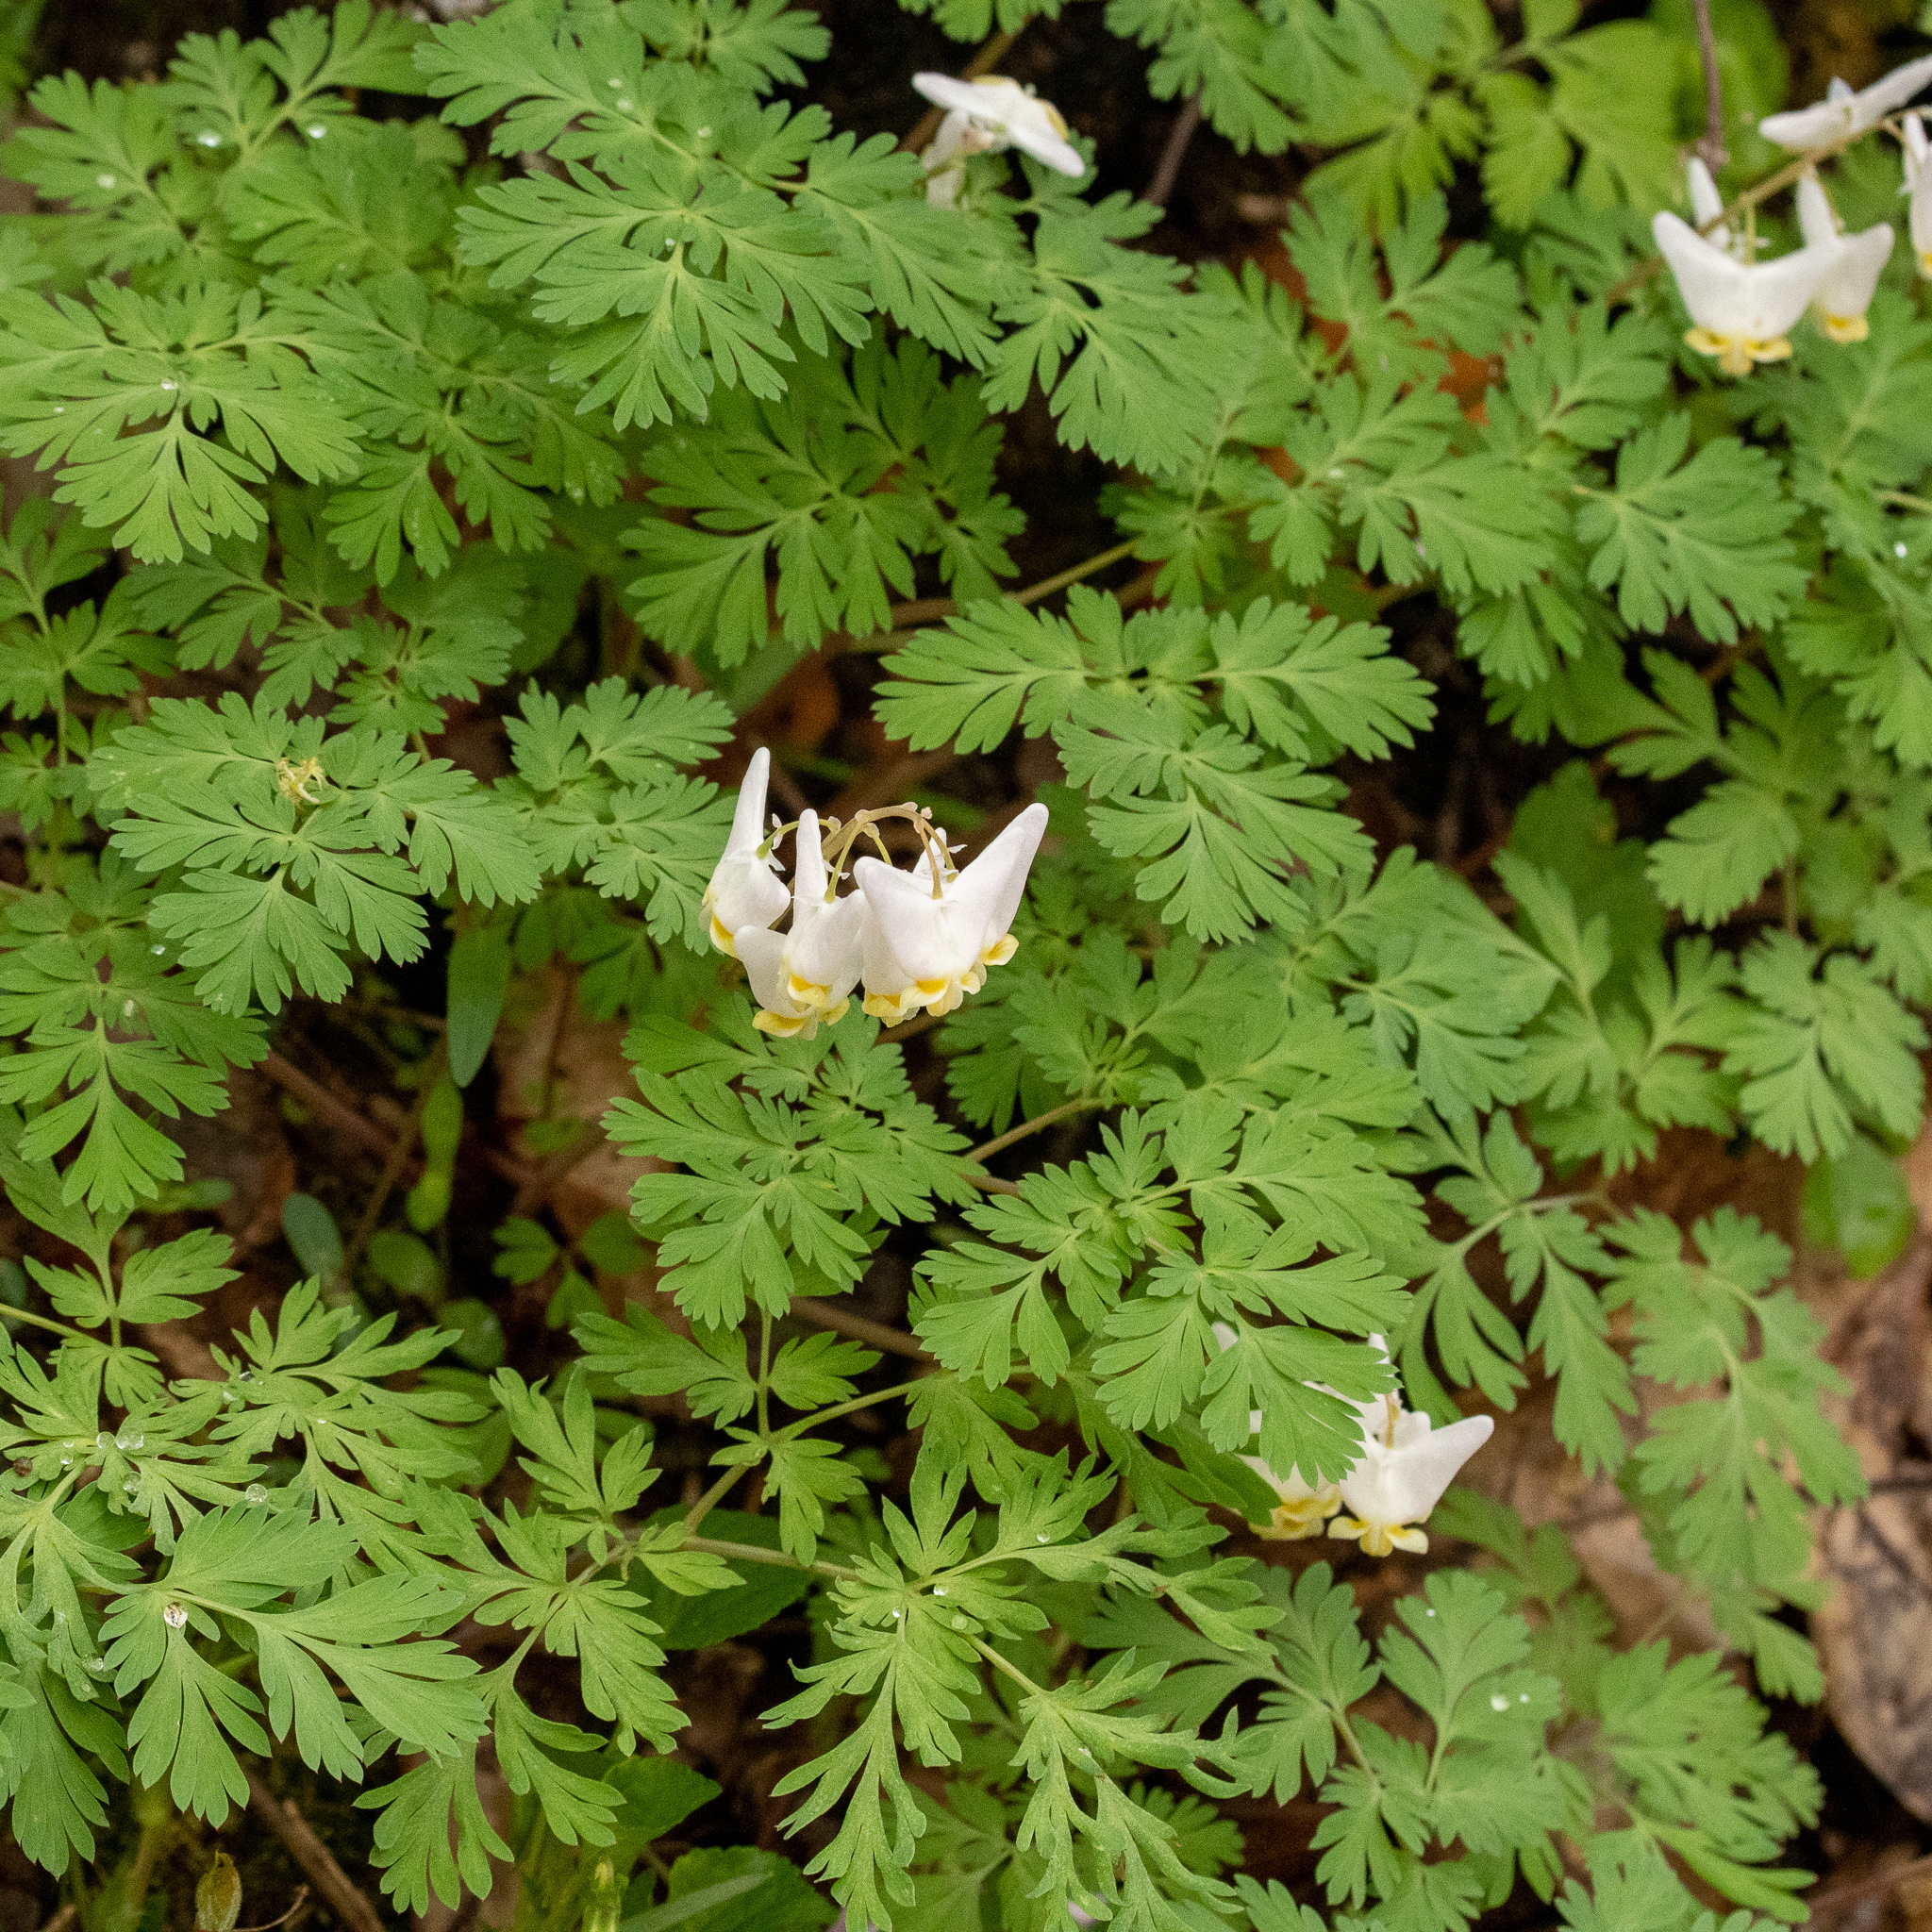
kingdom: Plantae
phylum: Tracheophyta
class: Magnoliopsida
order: Ranunculales
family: Papaveraceae
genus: Dicentra
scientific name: Dicentra cucullaria
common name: Dutchman's breeches
